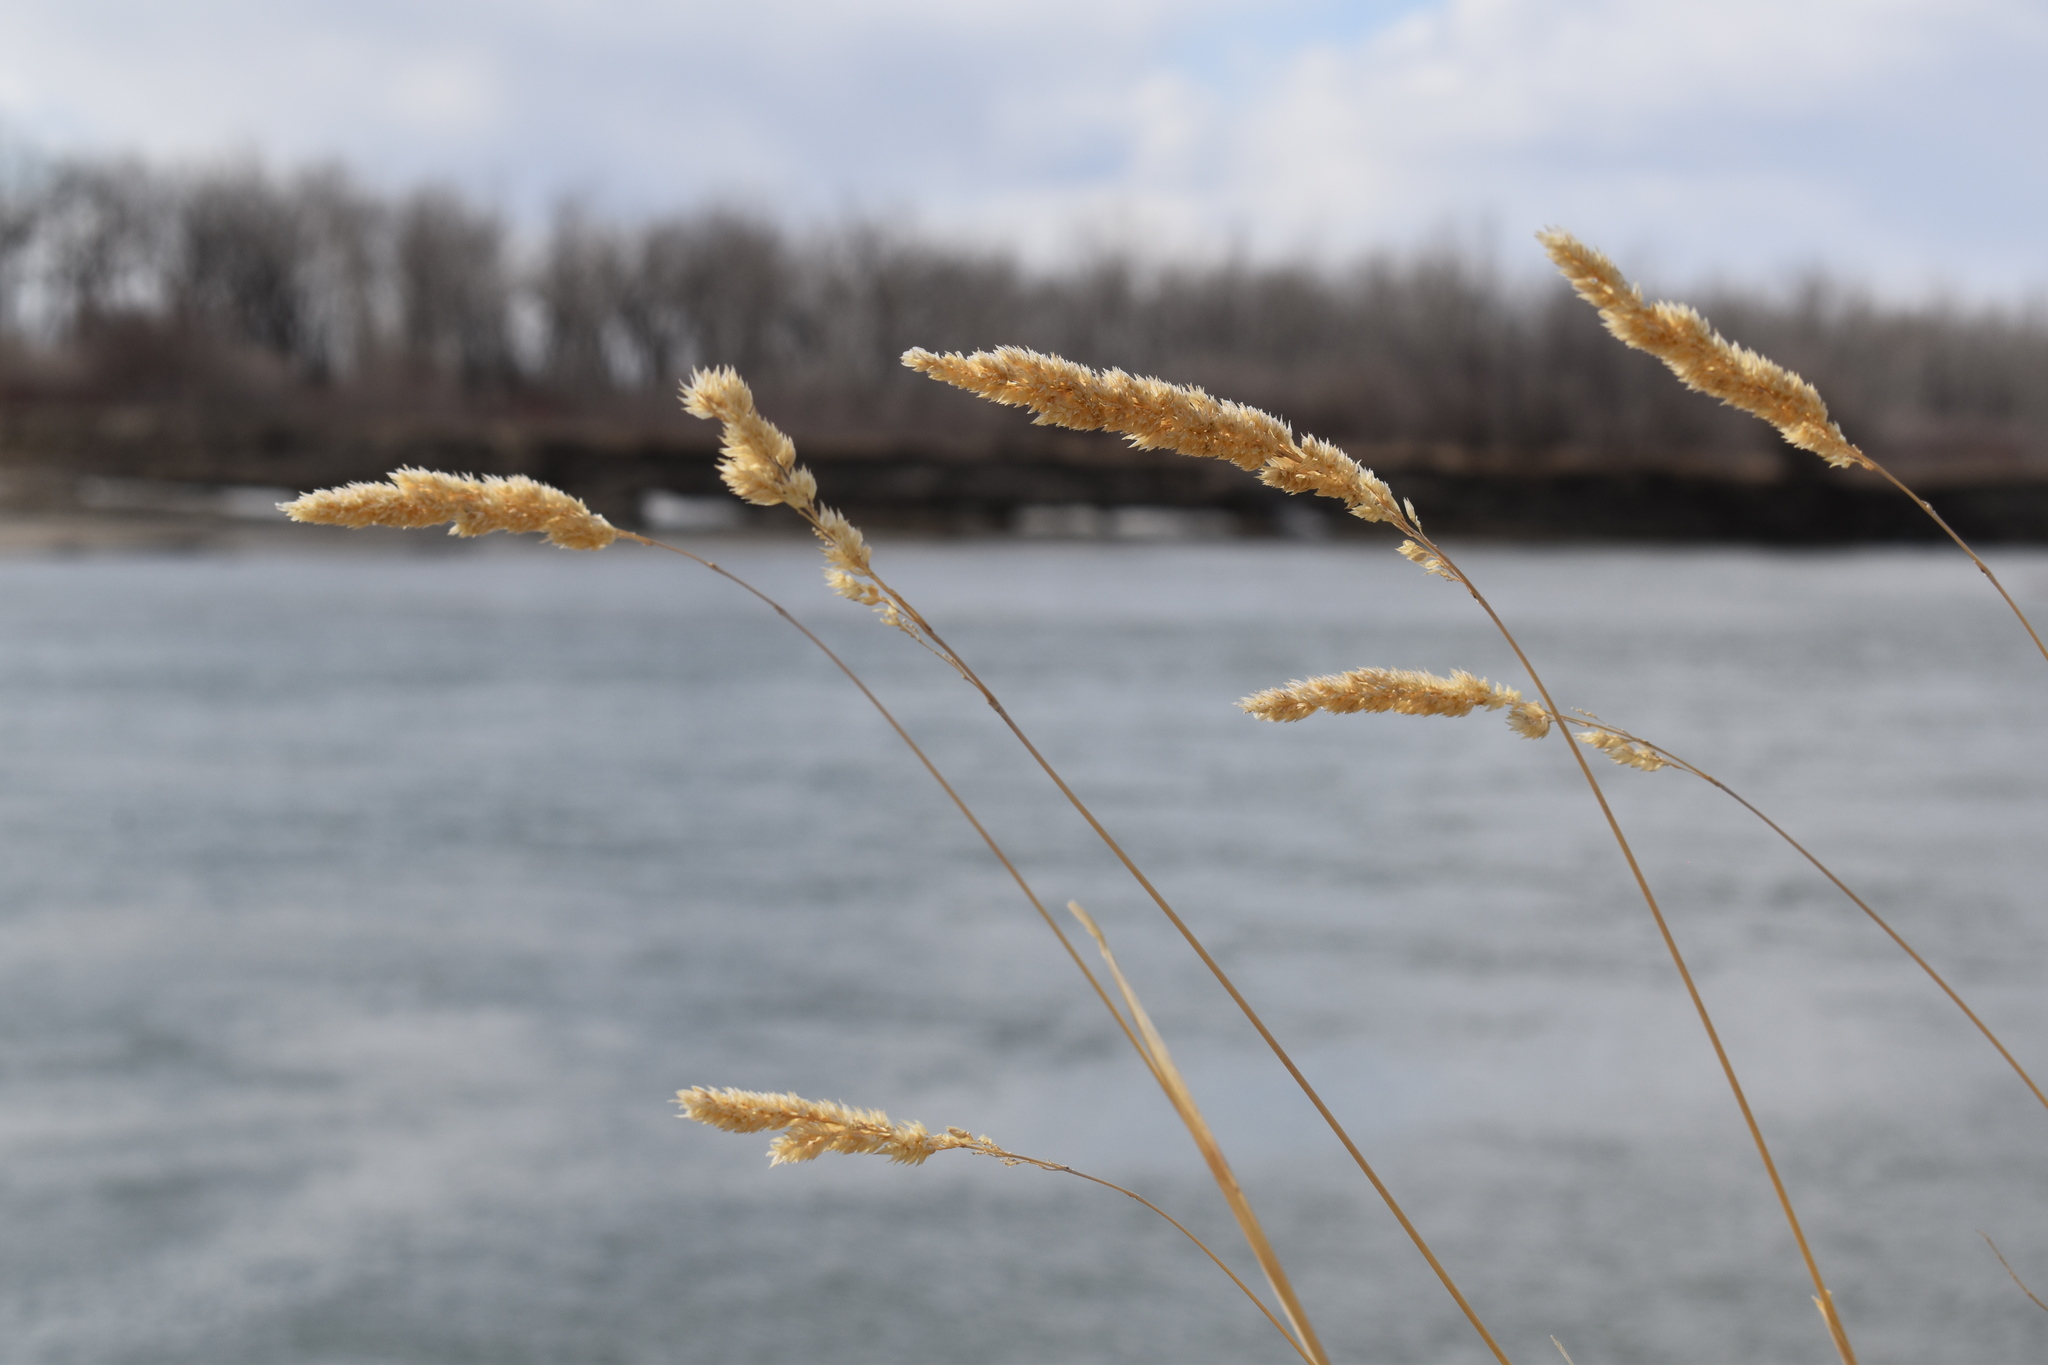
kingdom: Plantae
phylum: Tracheophyta
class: Liliopsida
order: Poales
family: Poaceae
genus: Phalaris
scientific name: Phalaris arundinacea
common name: Reed canary-grass
